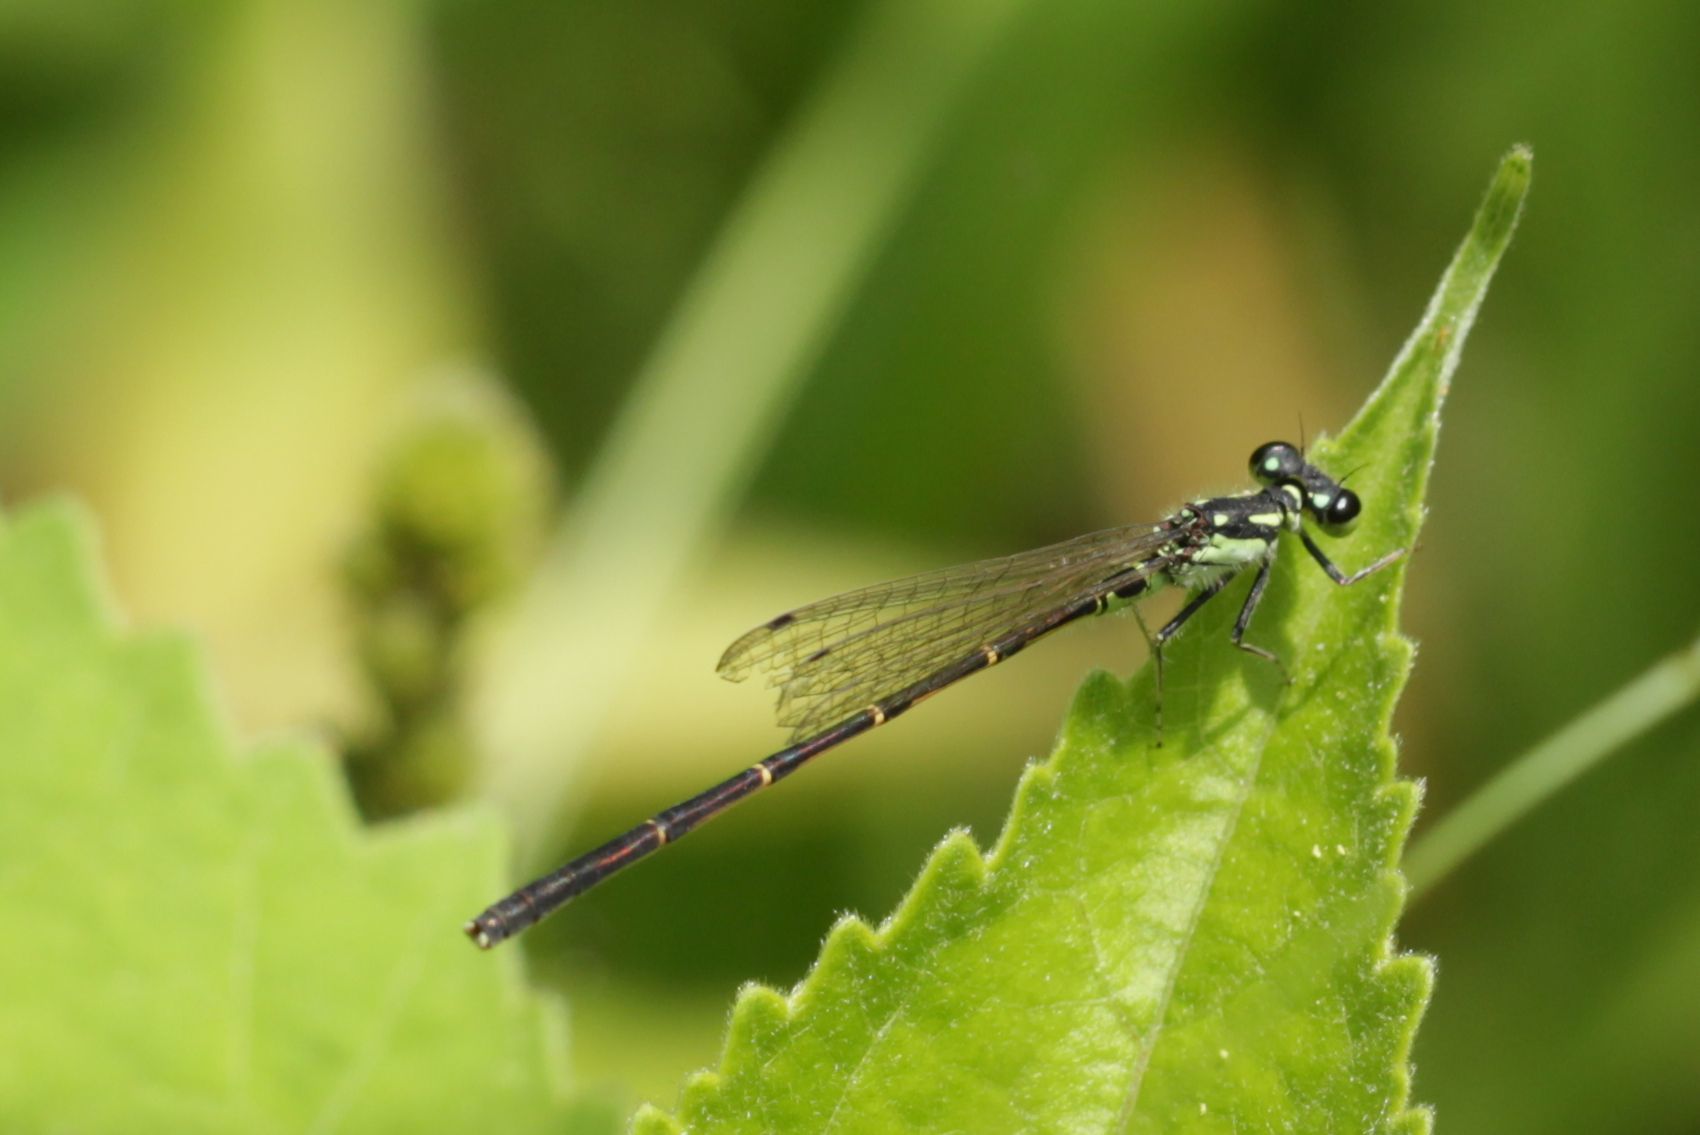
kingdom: Animalia
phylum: Arthropoda
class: Insecta
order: Odonata
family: Coenagrionidae
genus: Ischnura
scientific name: Ischnura posita
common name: Fragile forktail
